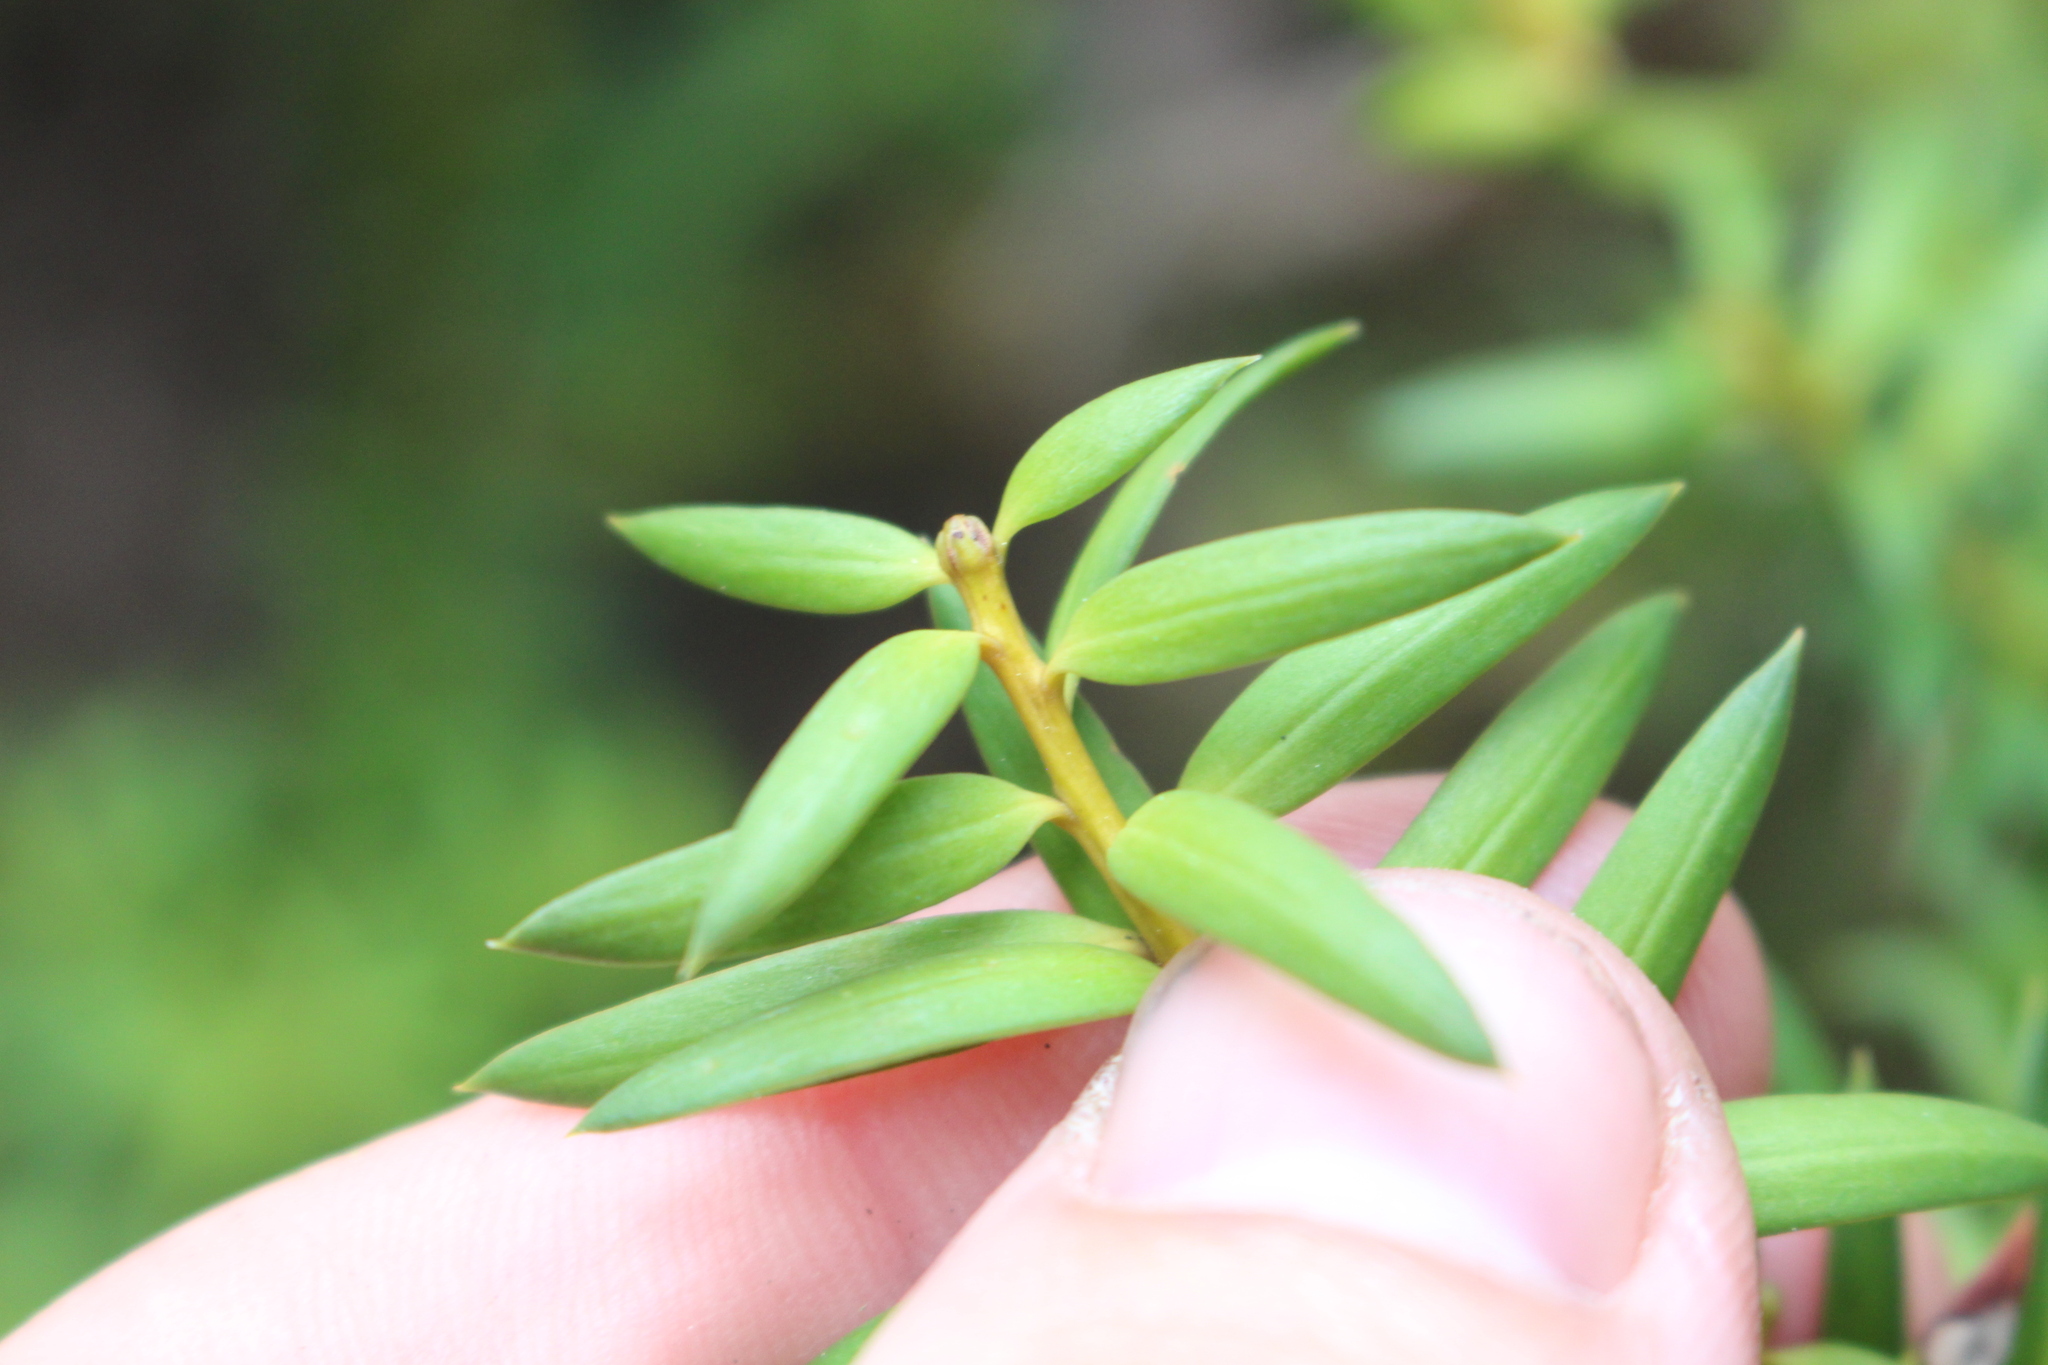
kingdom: Plantae
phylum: Tracheophyta
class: Pinopsida
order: Pinales
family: Podocarpaceae
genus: Podocarpus
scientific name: Podocarpus laetus
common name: Hall's totara
